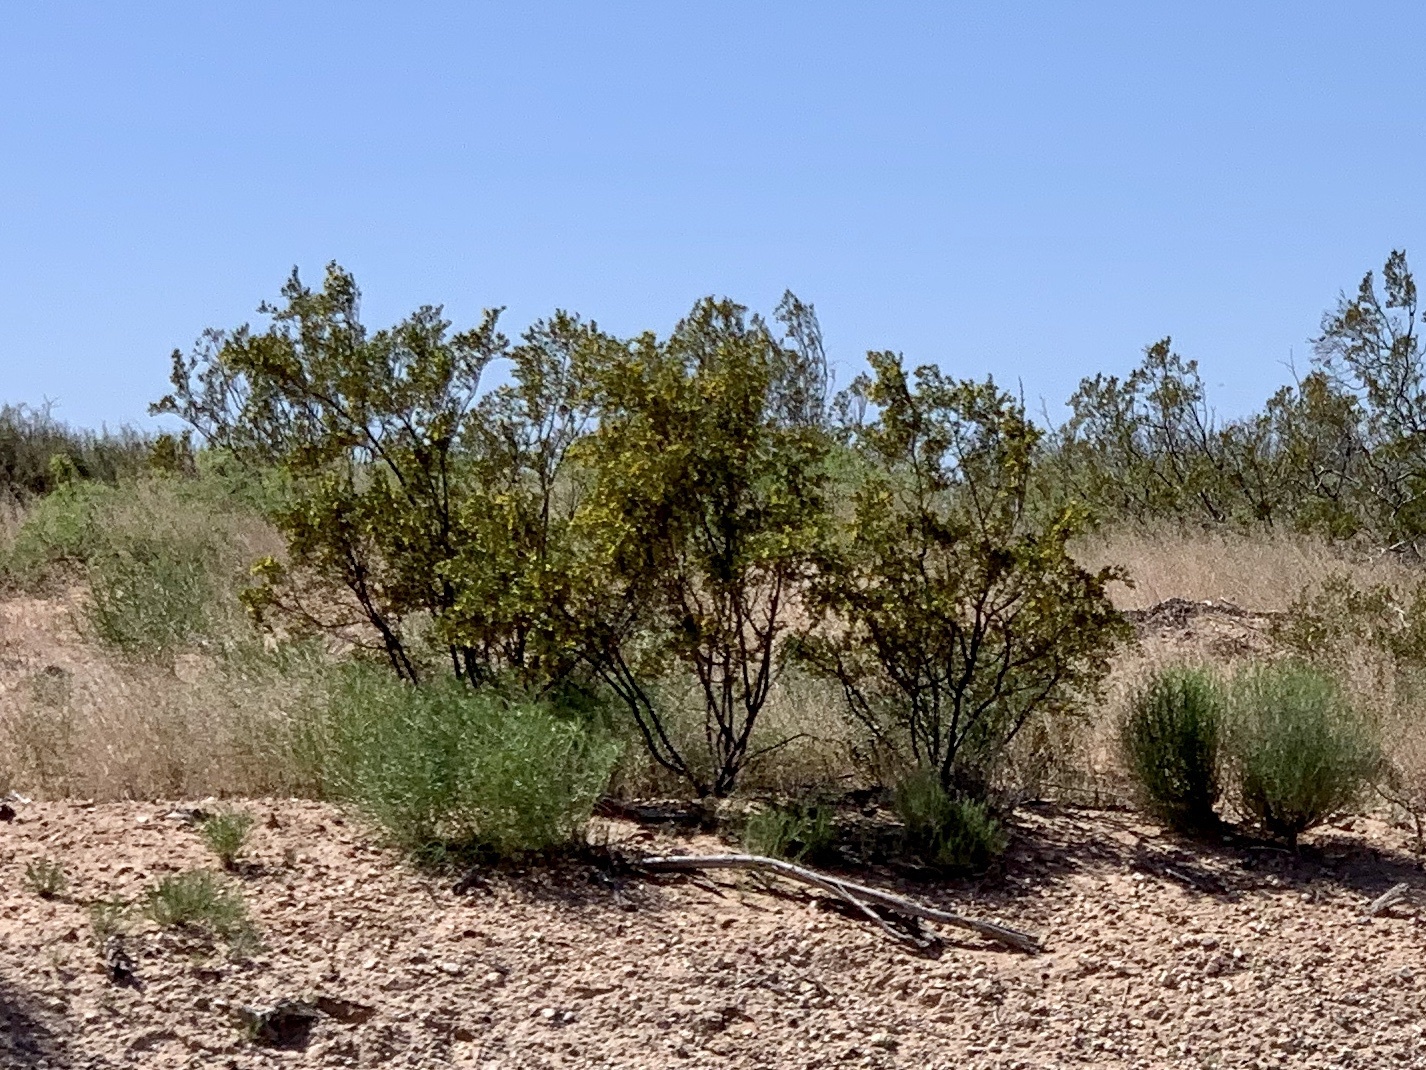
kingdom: Plantae
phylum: Tracheophyta
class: Magnoliopsida
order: Zygophyllales
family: Zygophyllaceae
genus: Larrea
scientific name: Larrea tridentata
